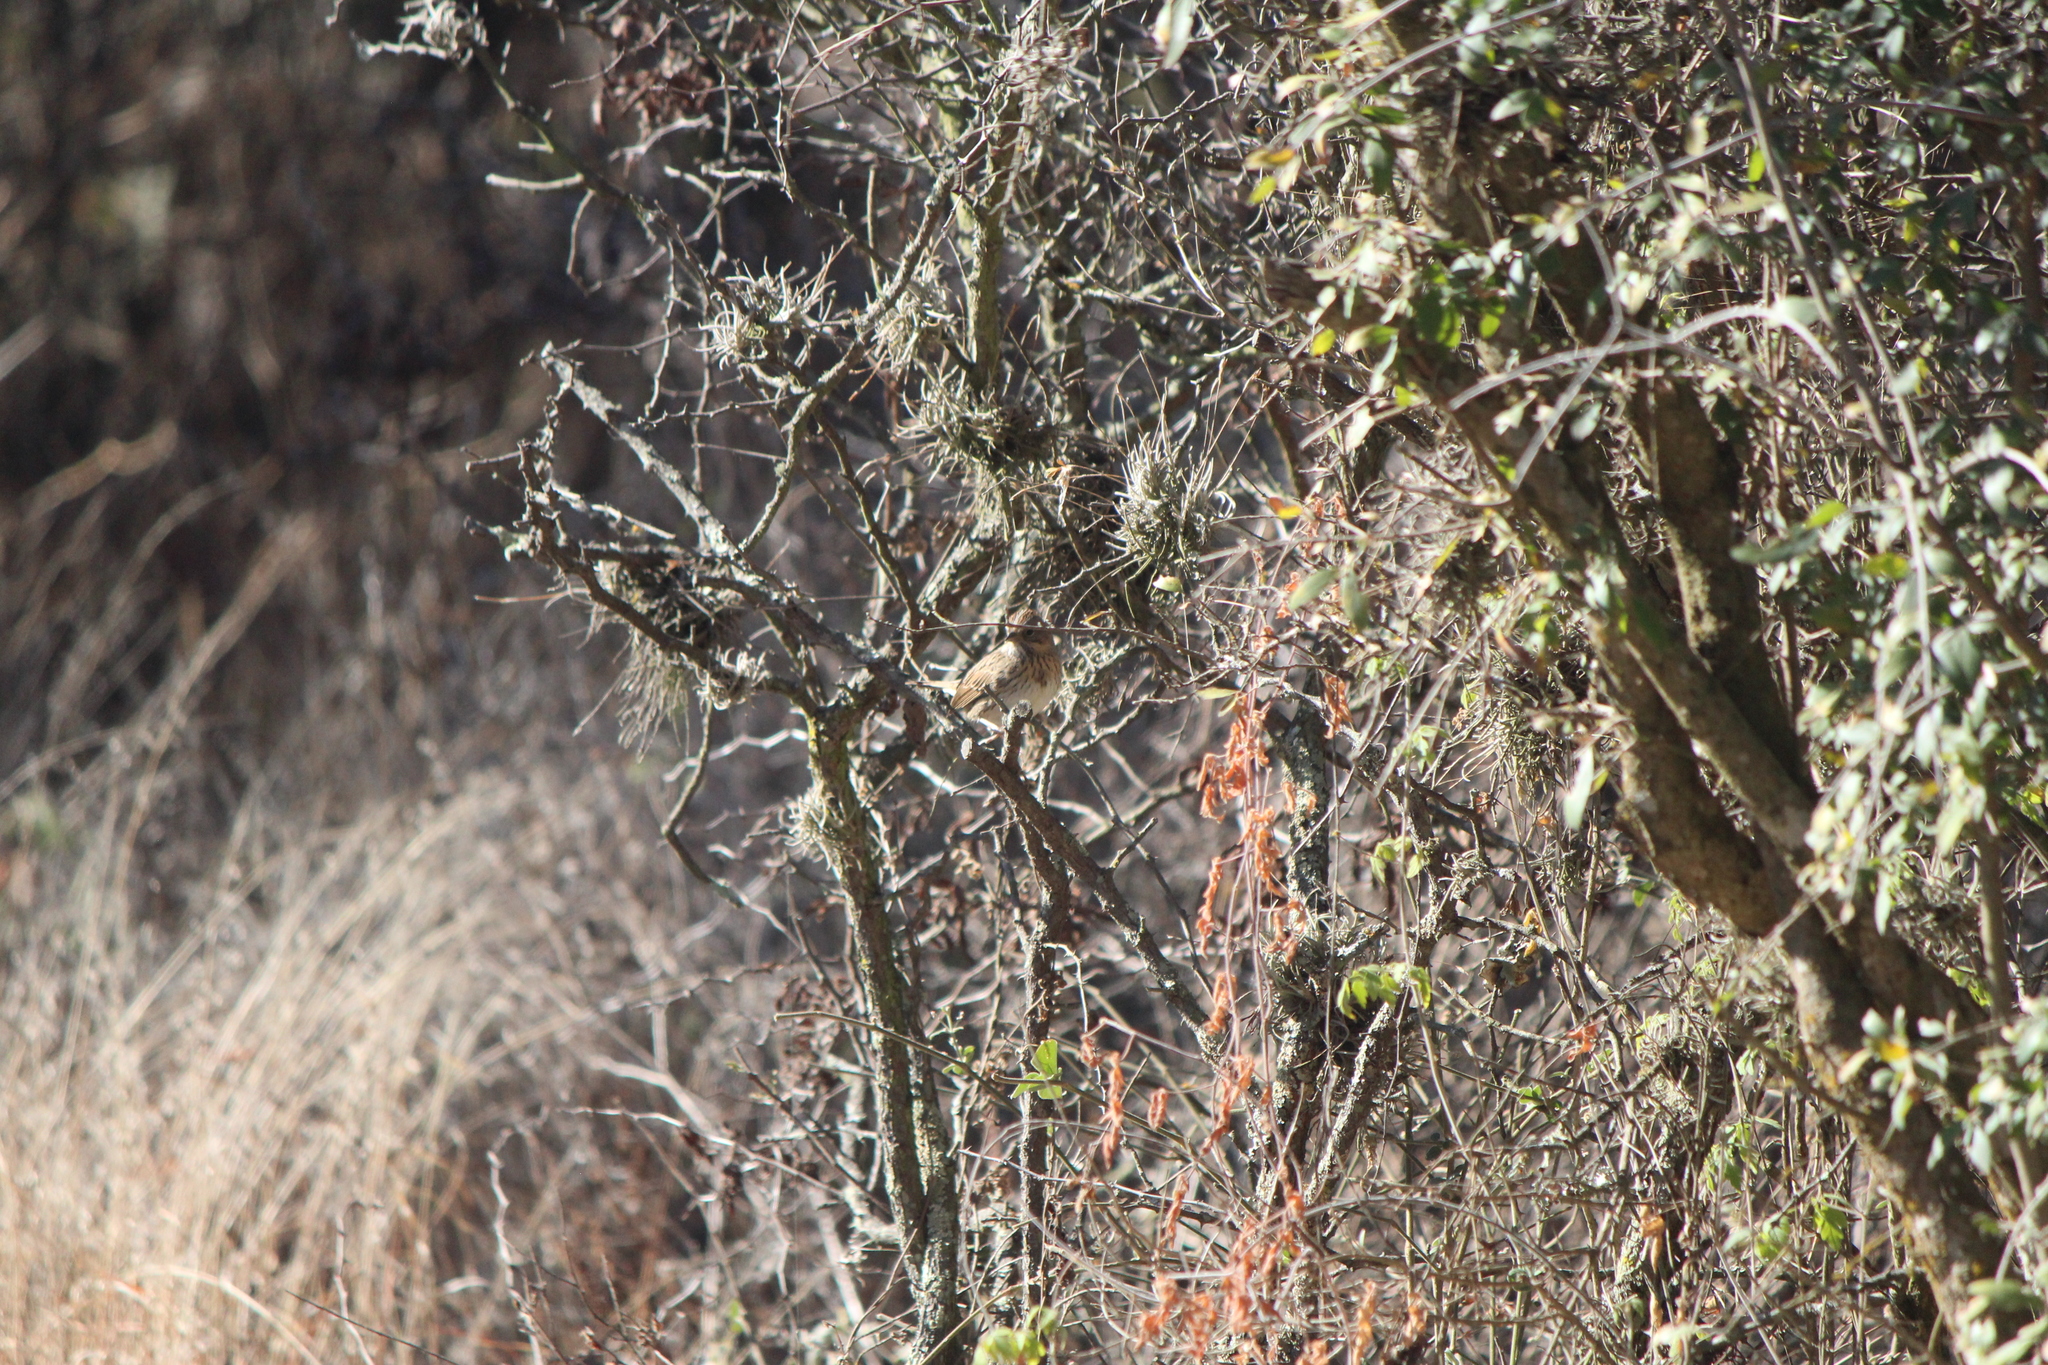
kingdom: Animalia
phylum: Chordata
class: Aves
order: Passeriformes
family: Passerellidae
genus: Melospiza
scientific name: Melospiza lincolnii
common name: Lincoln's sparrow
